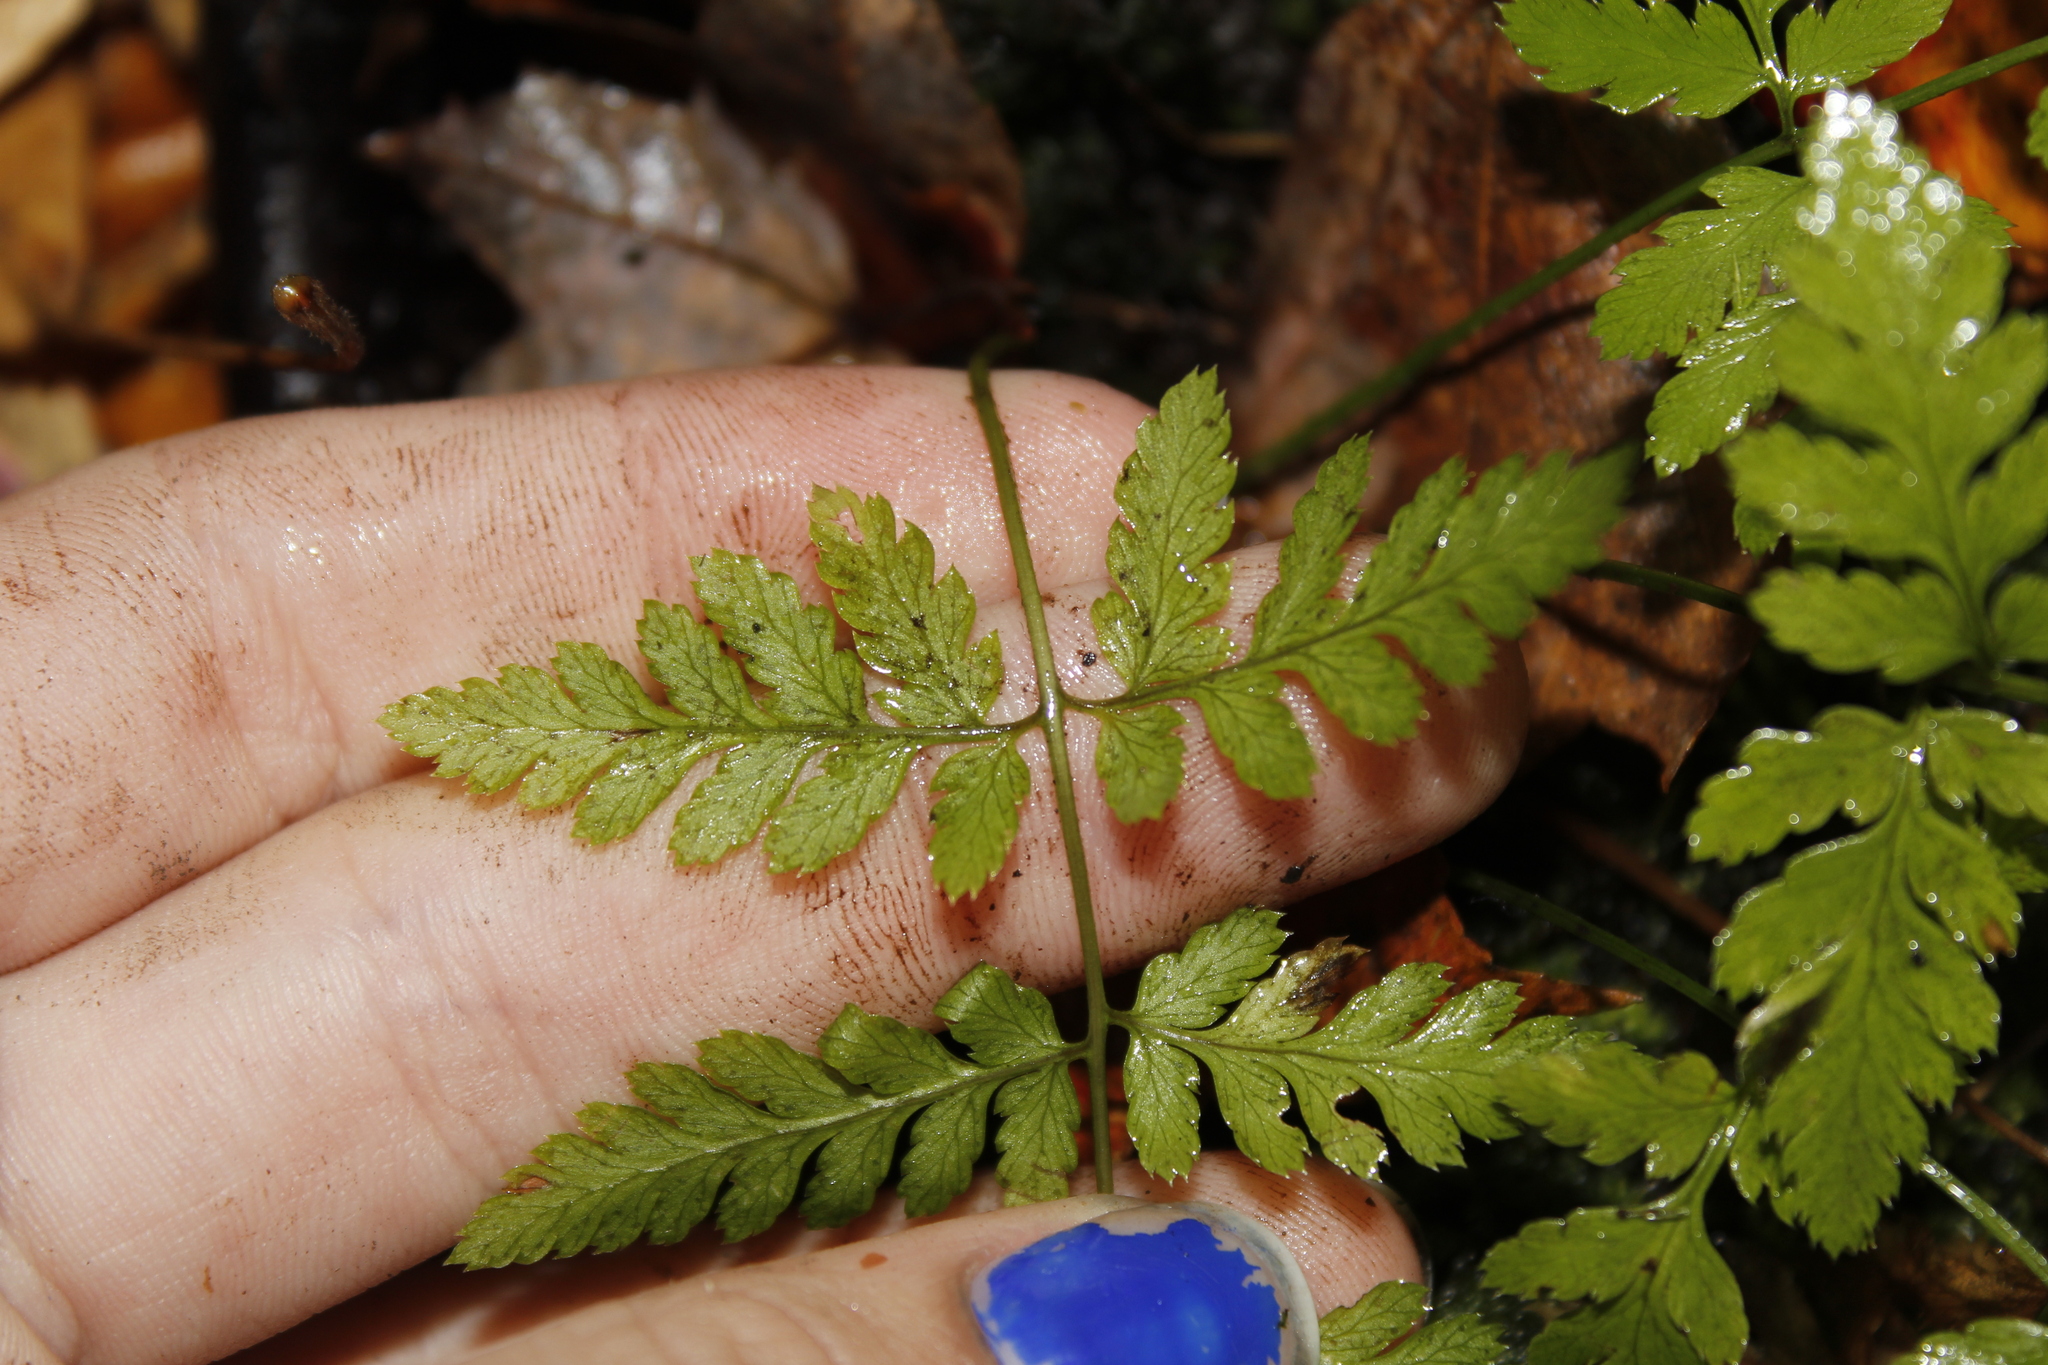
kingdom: Plantae
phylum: Tracheophyta
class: Polypodiopsida
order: Polypodiales
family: Dryopteridaceae
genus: Dryopteris
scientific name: Dryopteris carthusiana
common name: Narrow buckler-fern
